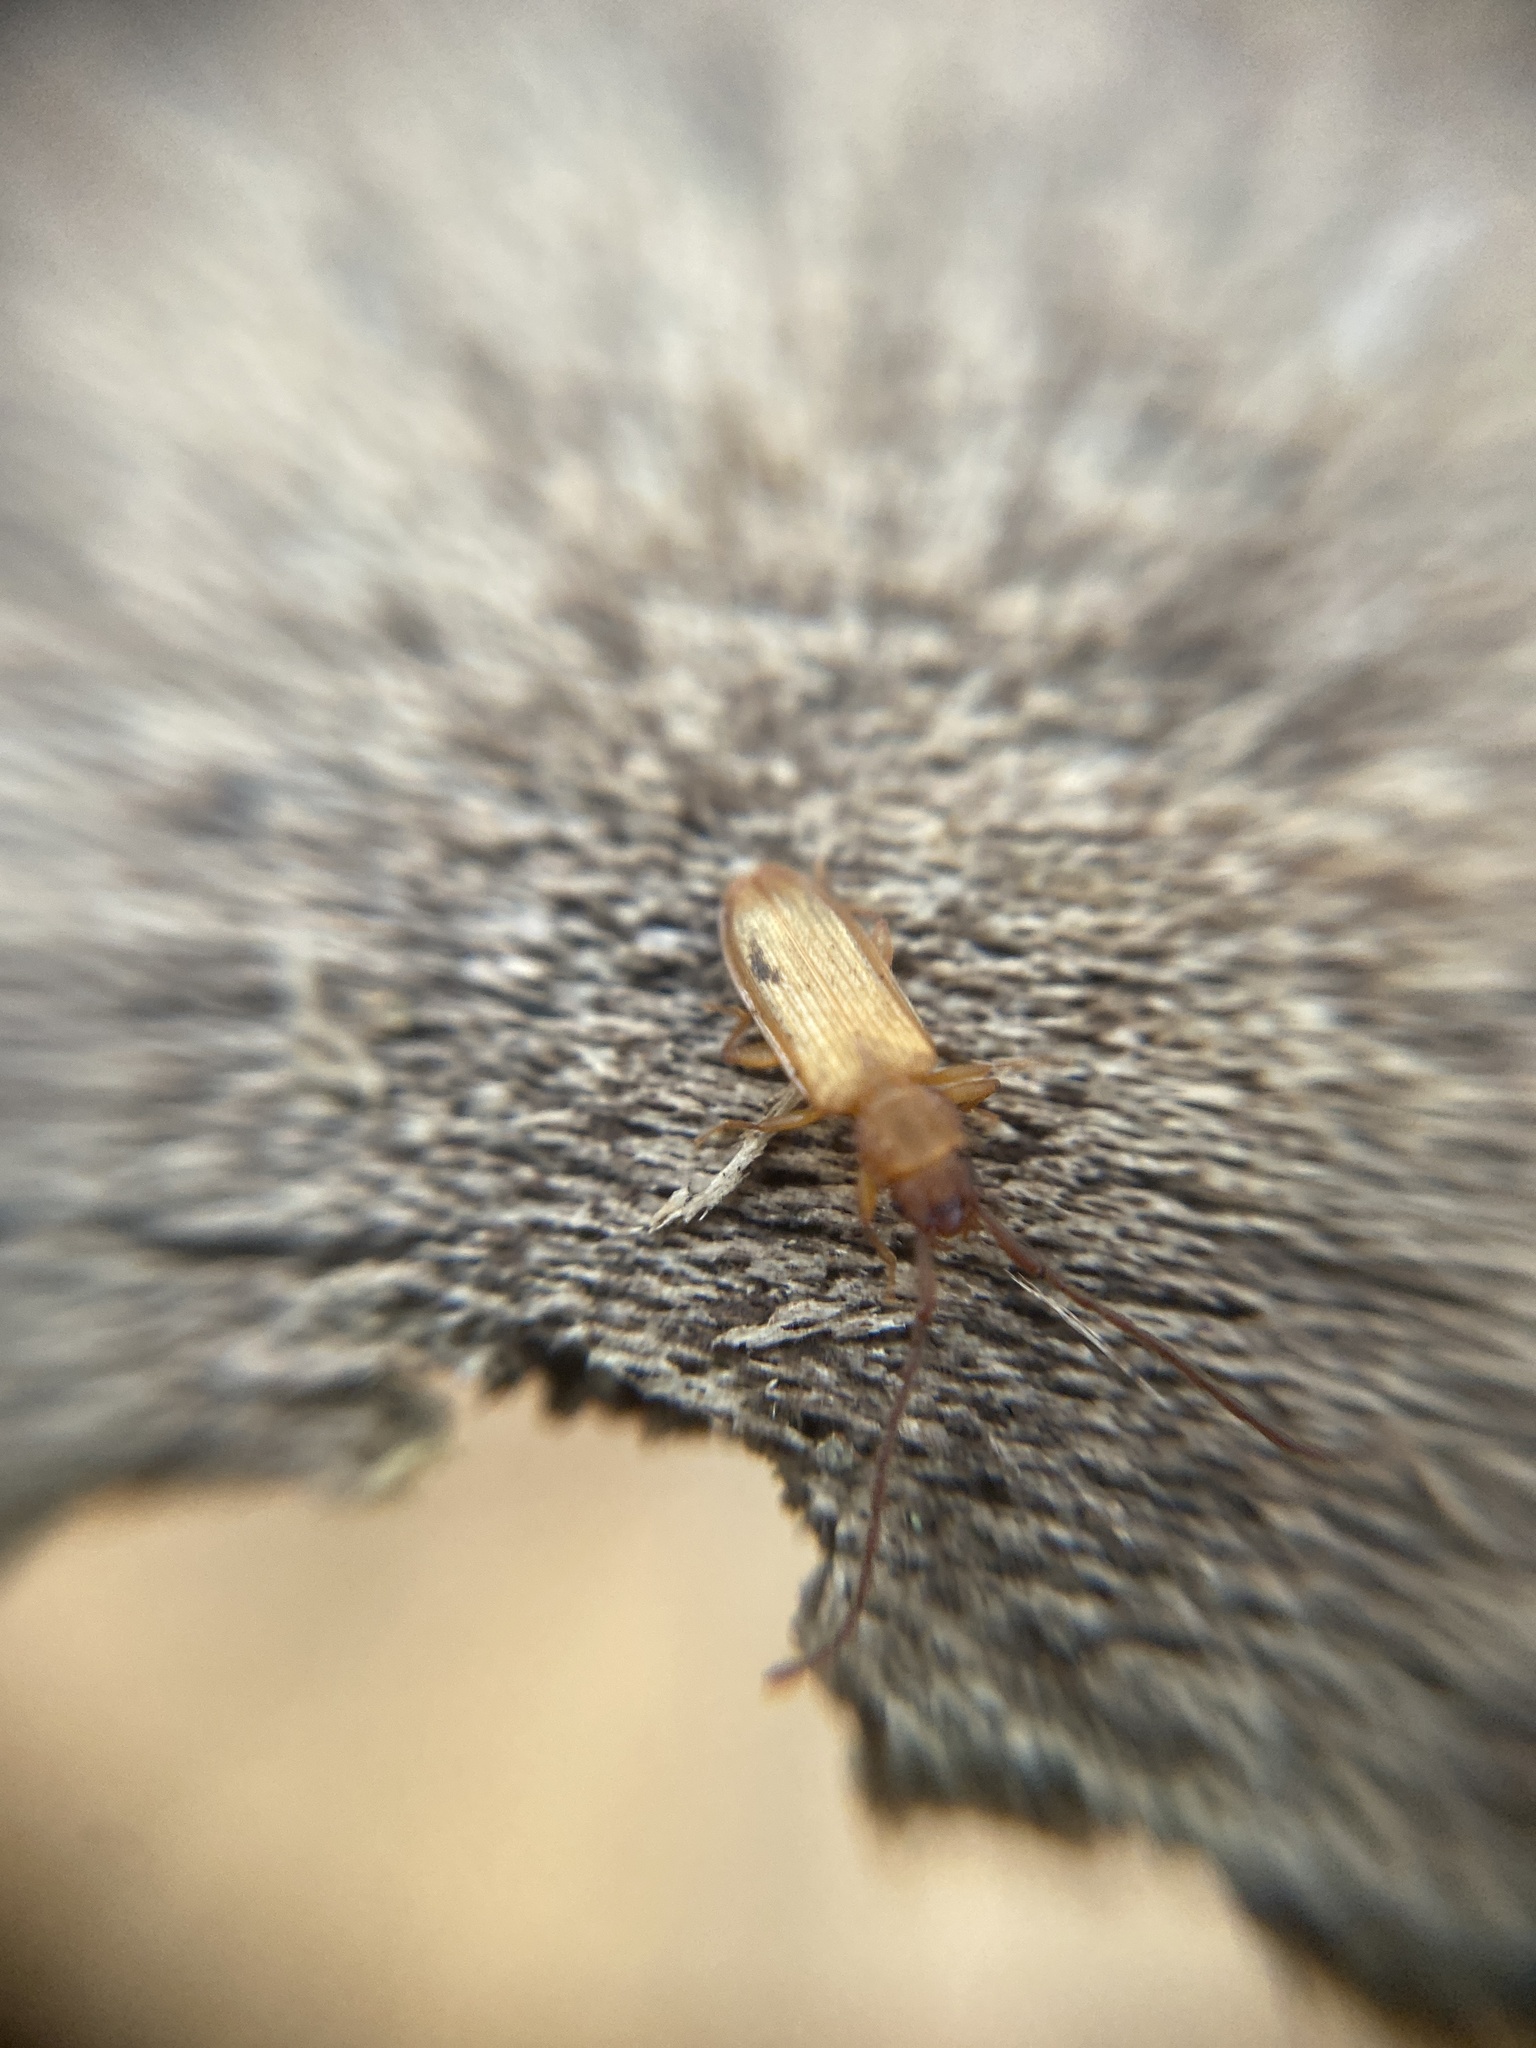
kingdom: Animalia
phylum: Arthropoda
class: Insecta
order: Coleoptera
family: Silvanidae
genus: Uleiota
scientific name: Uleiota planatus
